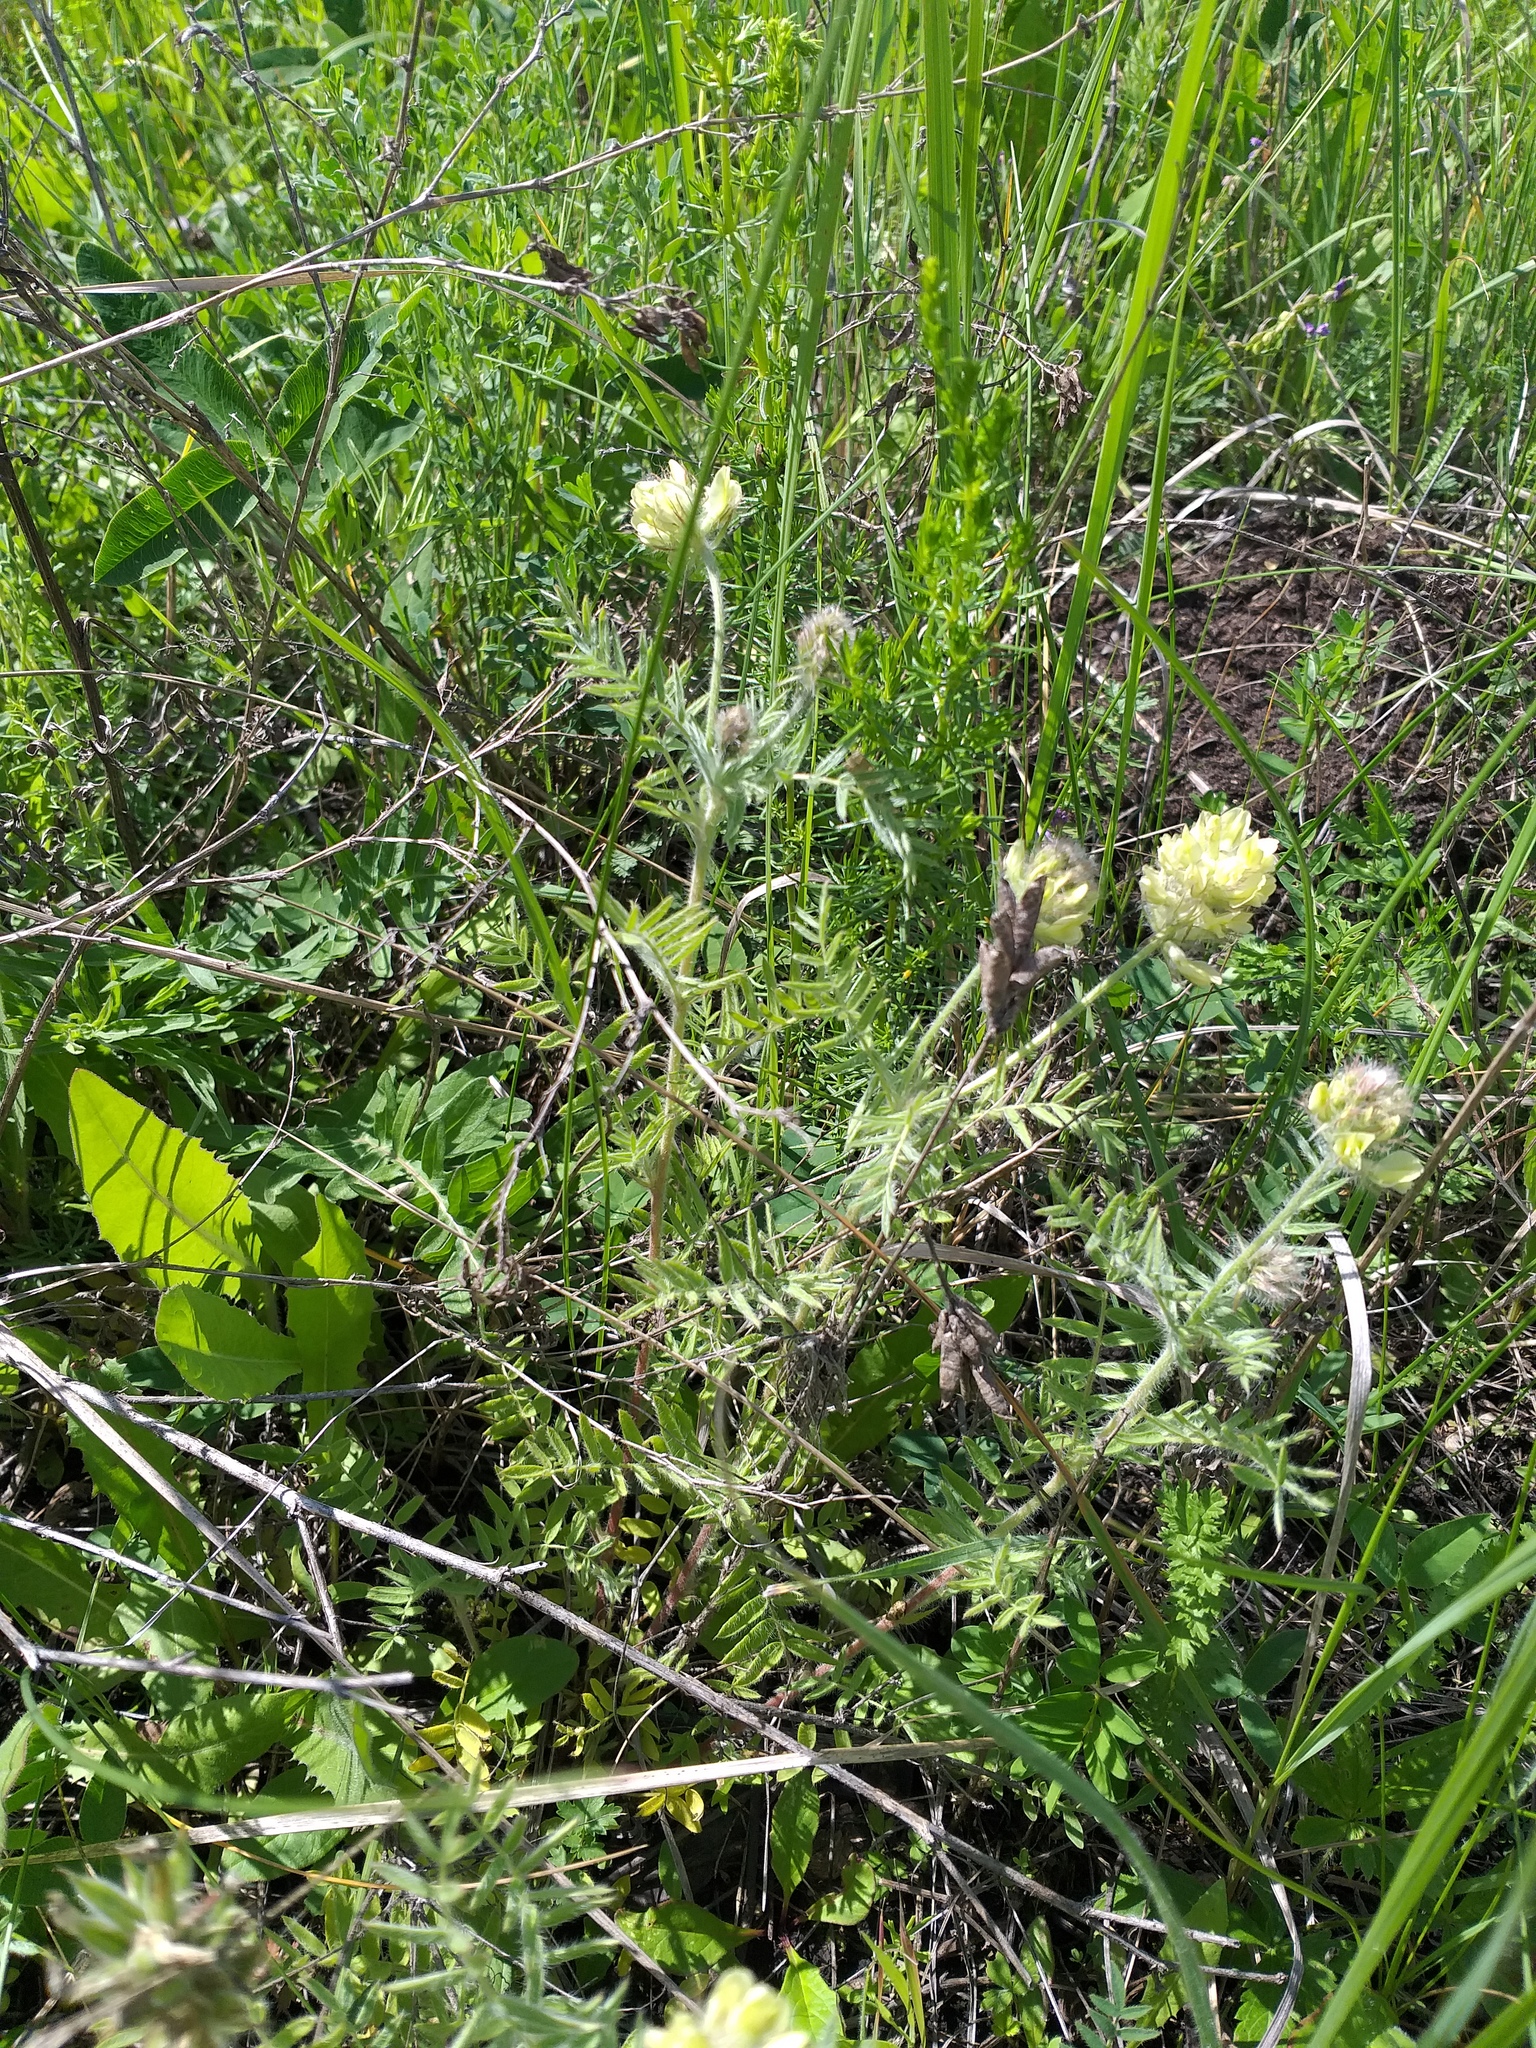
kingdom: Plantae
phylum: Tracheophyta
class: Magnoliopsida
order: Fabales
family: Fabaceae
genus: Oxytropis
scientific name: Oxytropis pilosa
